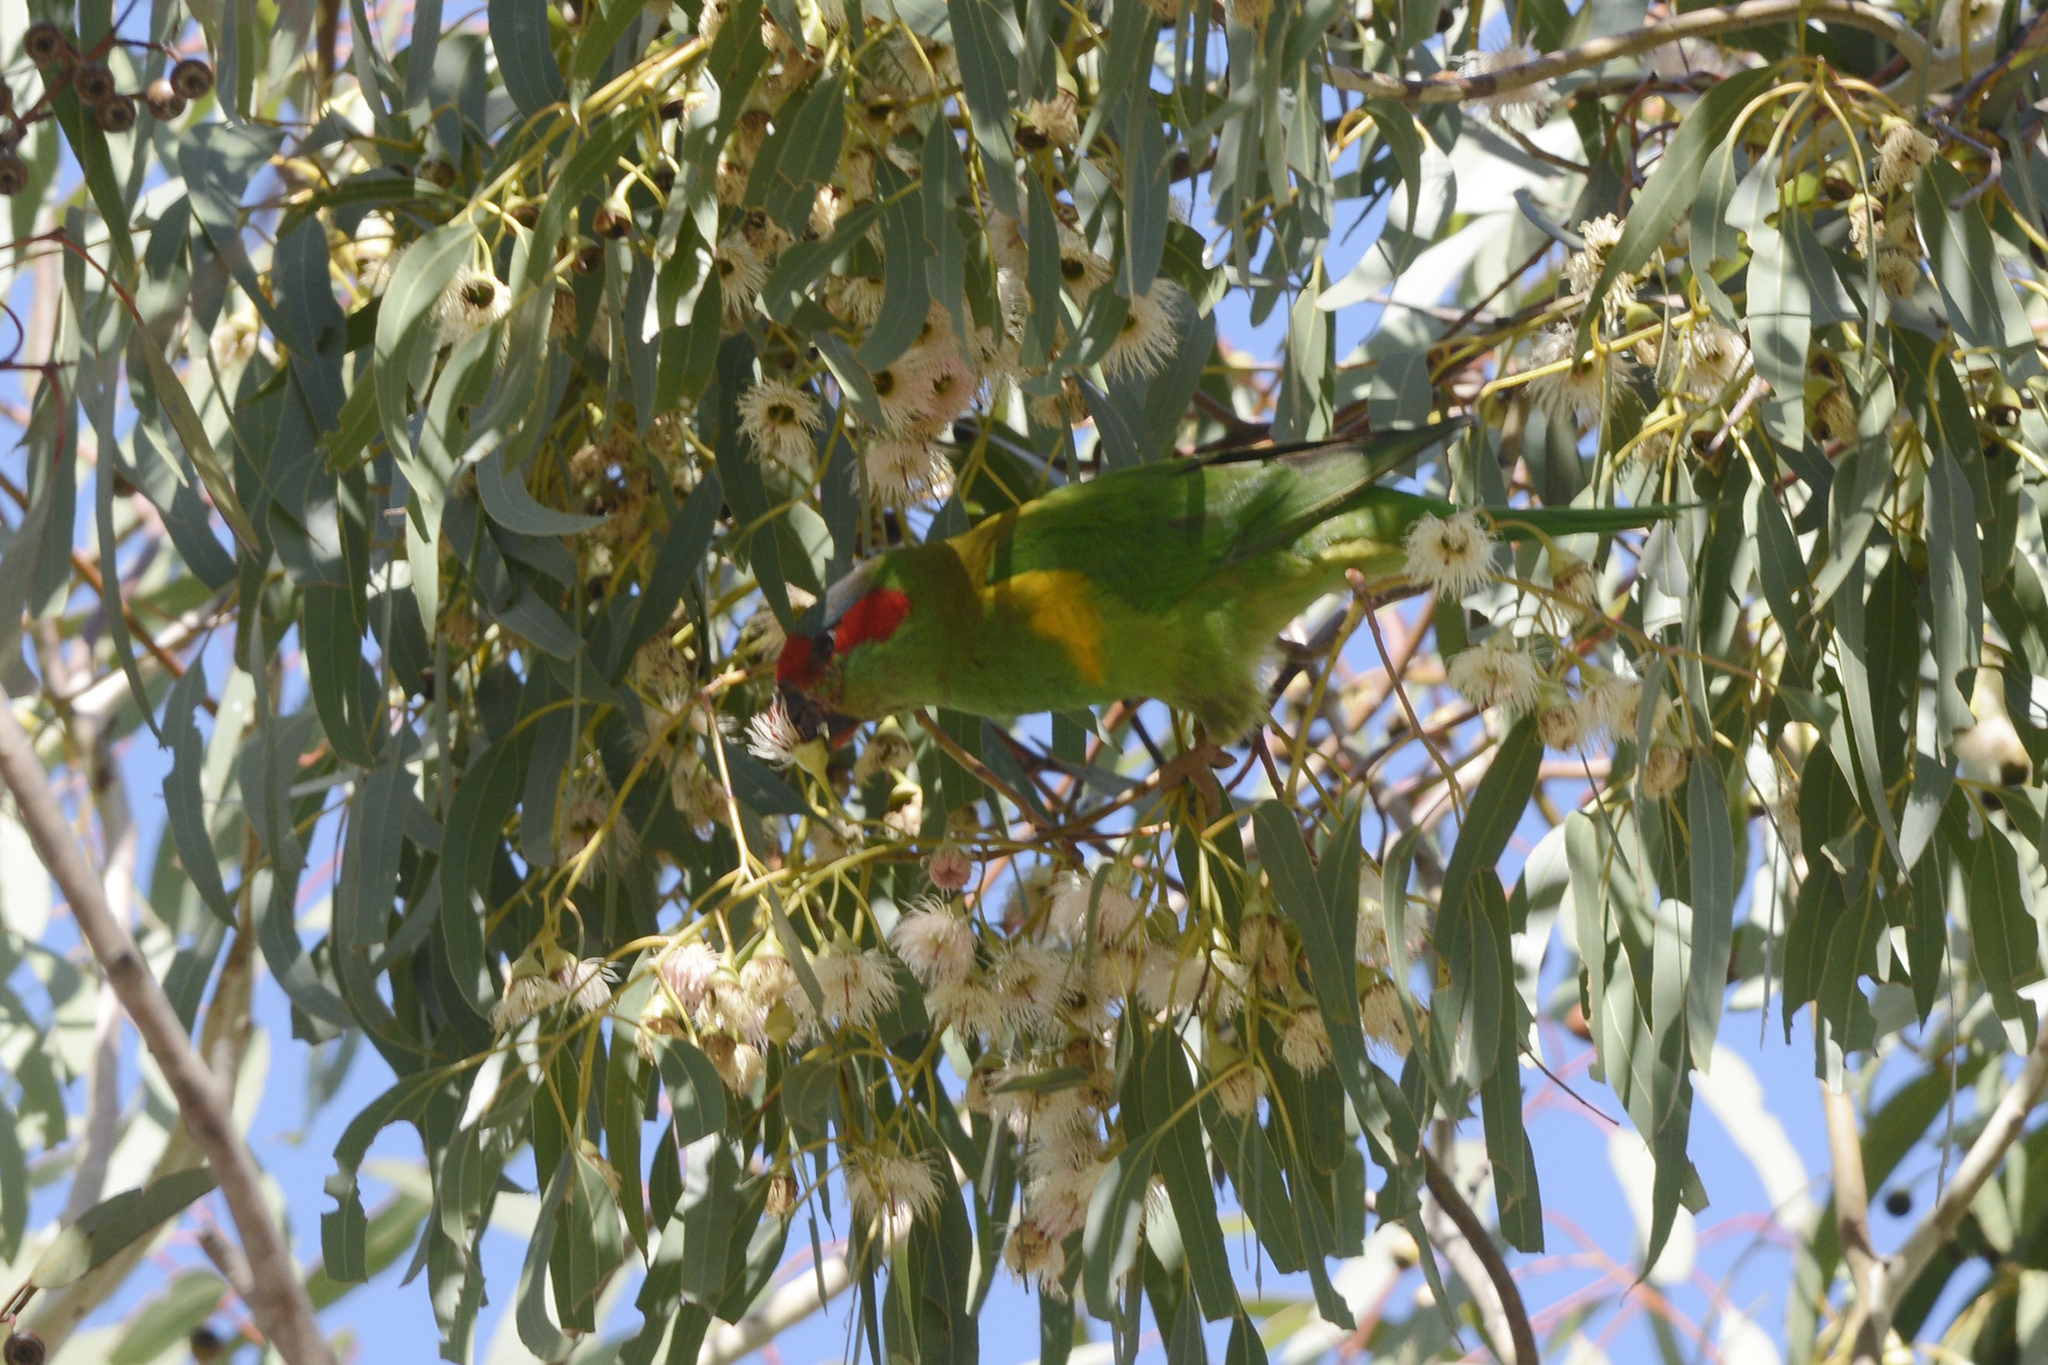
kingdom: Animalia
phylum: Chordata
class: Aves
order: Psittaciformes
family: Psittacidae
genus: Glossopsitta
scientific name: Glossopsitta concinna
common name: Musk lorikeet
